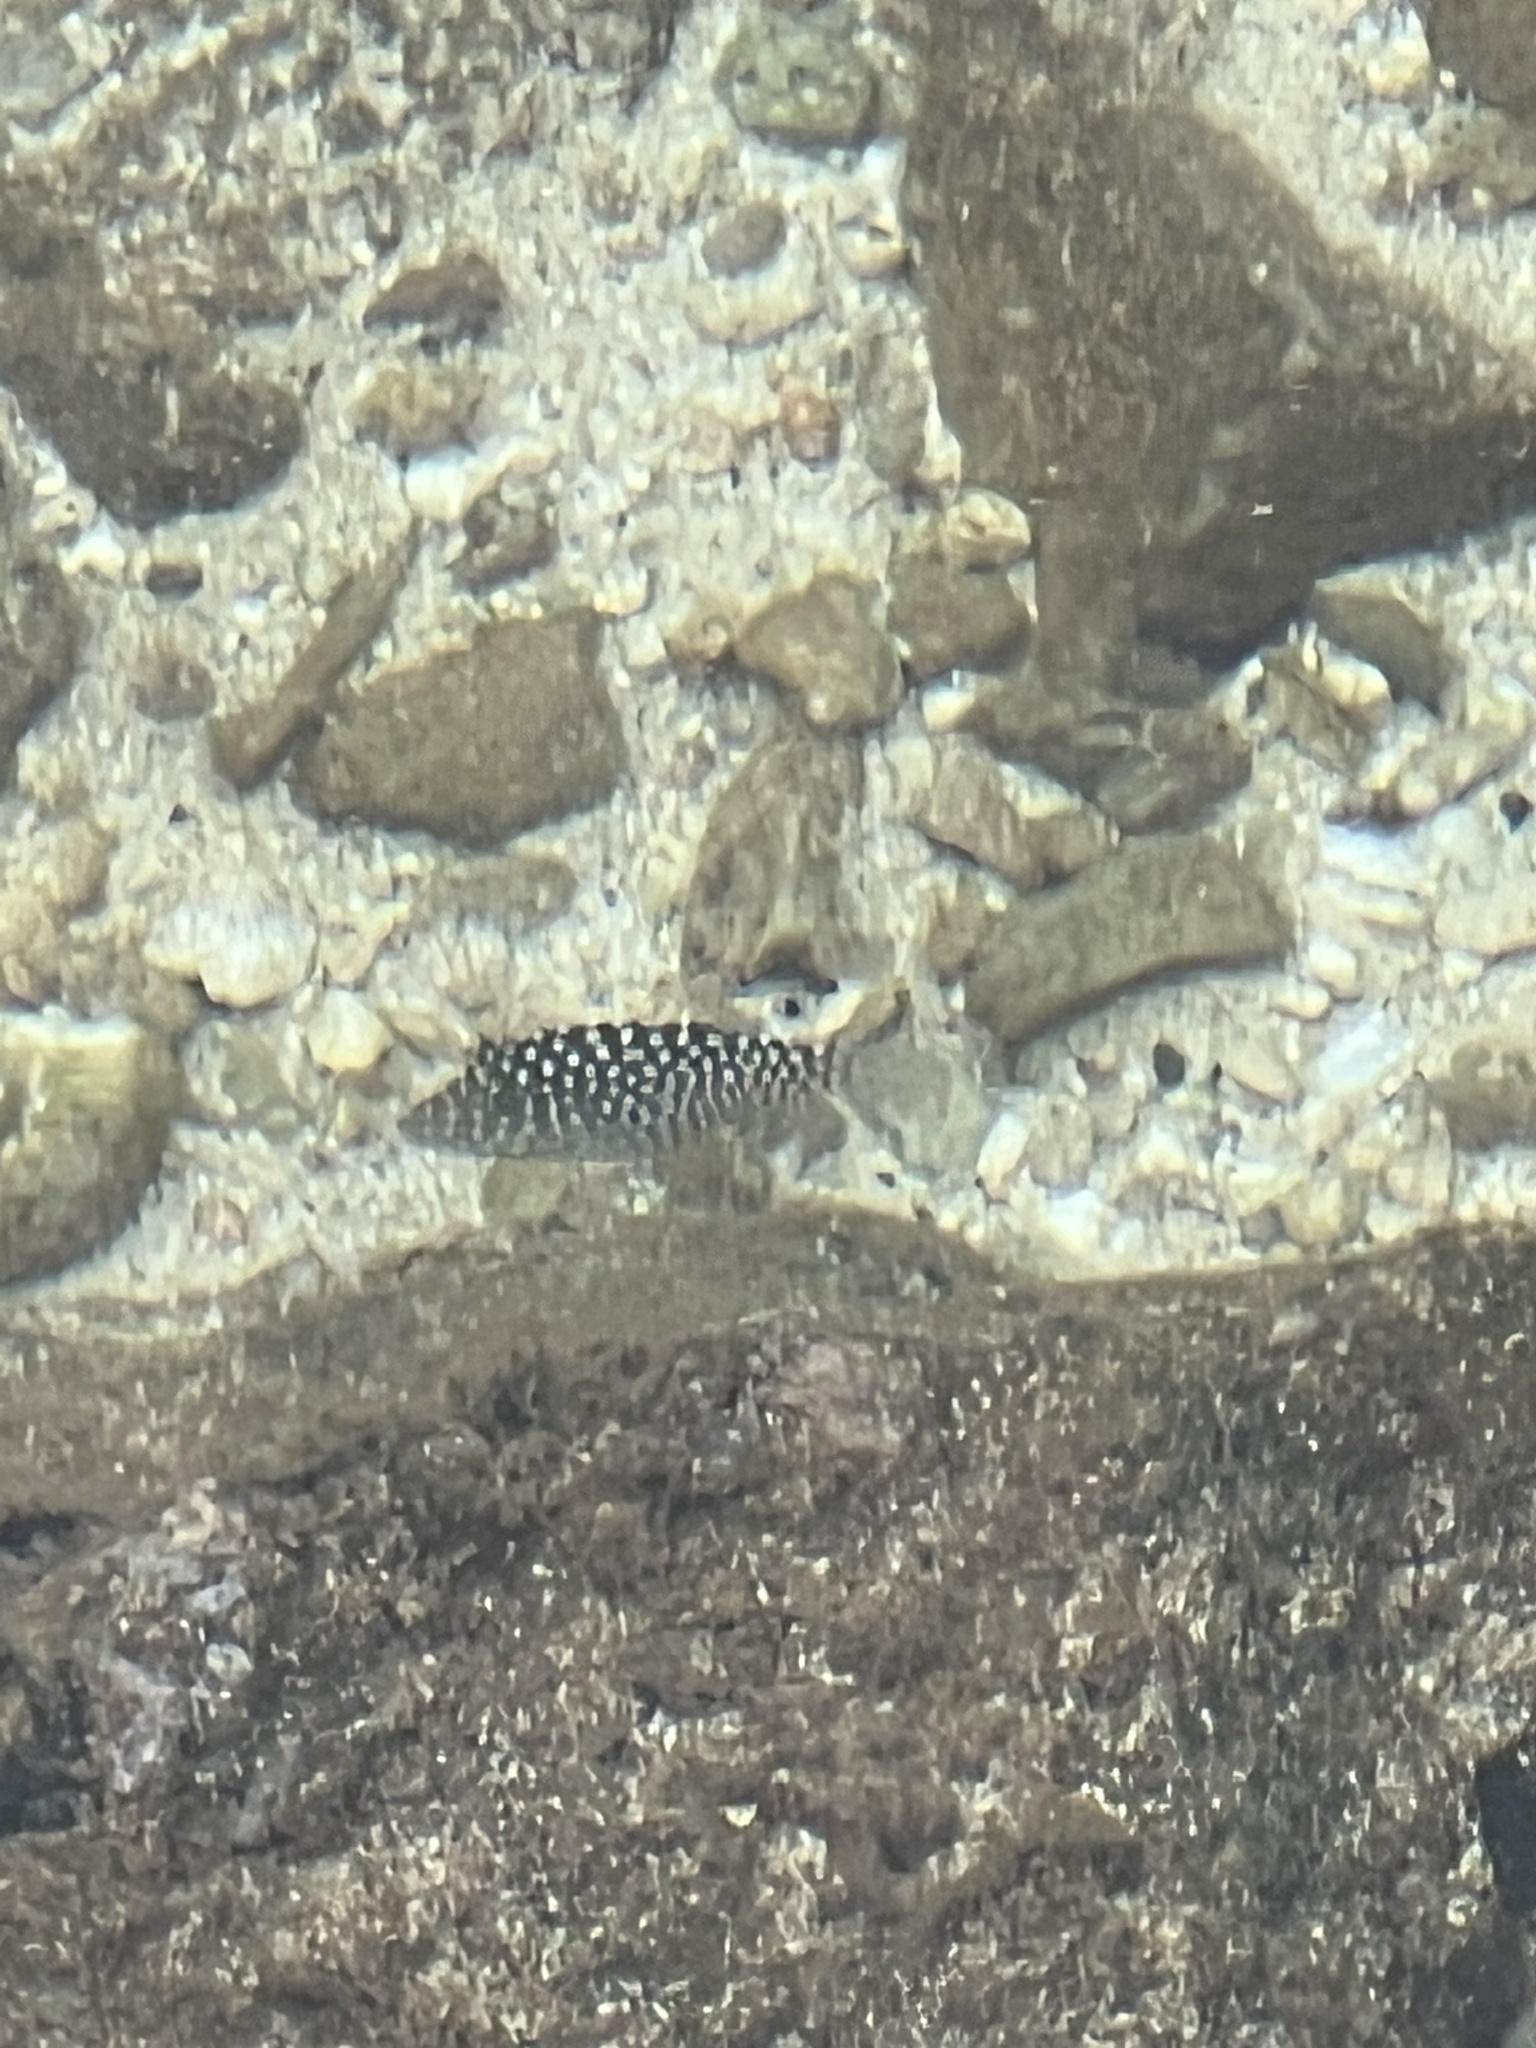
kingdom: Animalia
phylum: Chordata
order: Tetraodontiformes
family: Tetraodontidae
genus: Canthigaster
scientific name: Canthigaster jactator
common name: Hawaiian whitespotted toby
